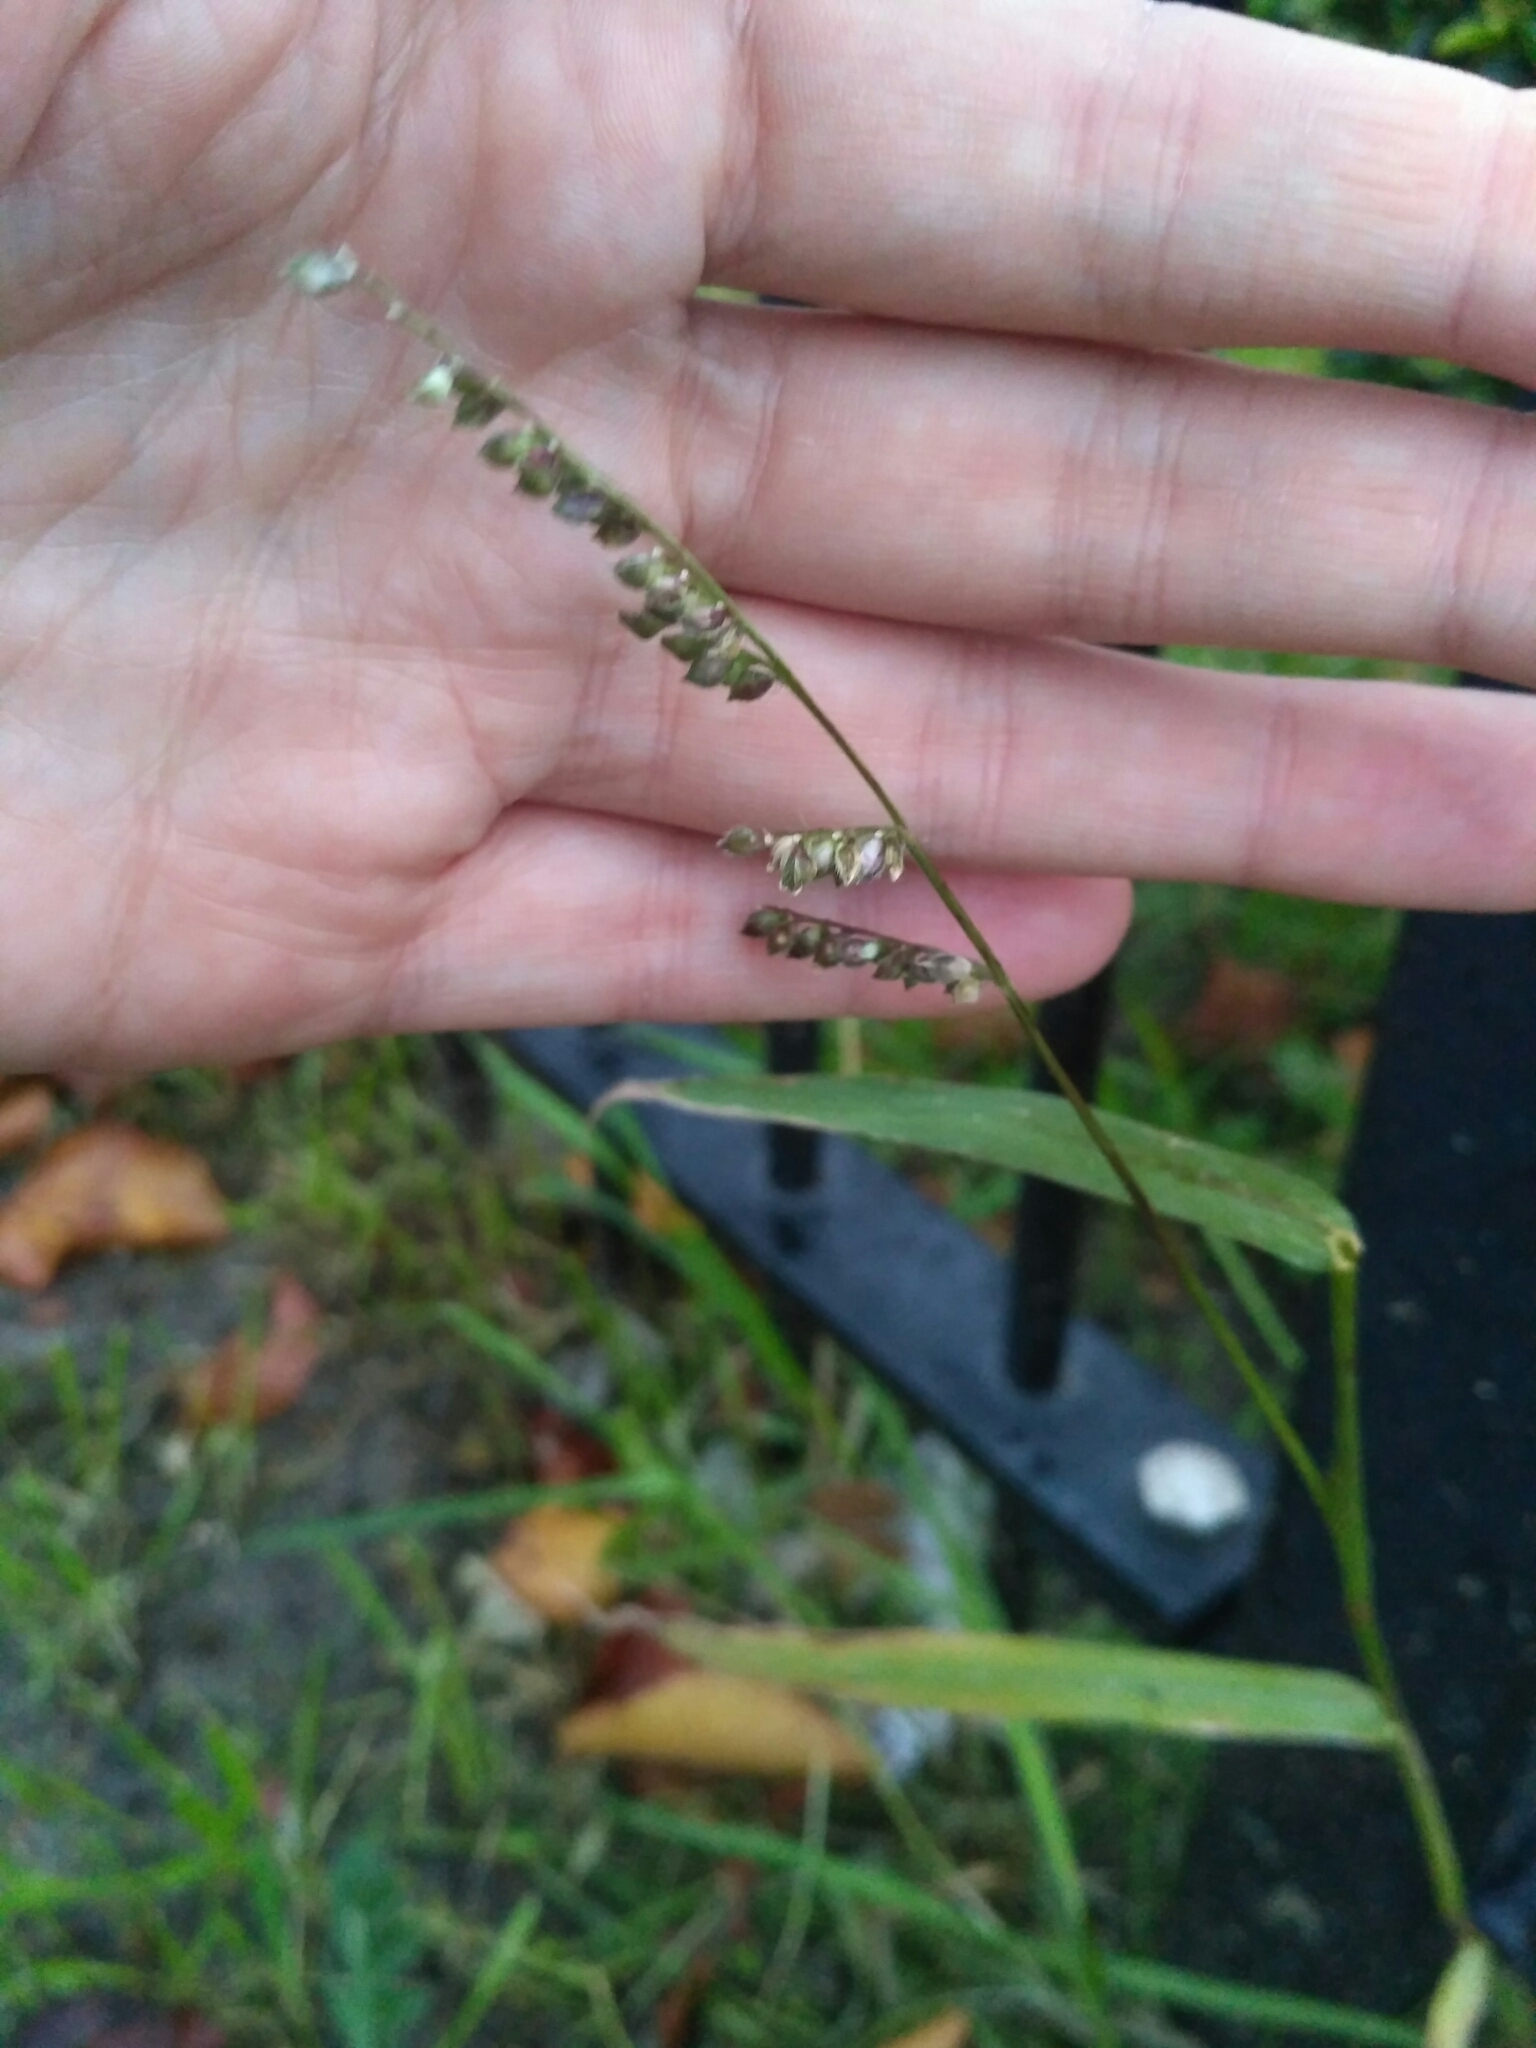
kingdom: Plantae
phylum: Tracheophyta
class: Liliopsida
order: Poales
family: Poaceae
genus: Echinochloa
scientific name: Echinochloa crus-galli
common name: Cockspur
